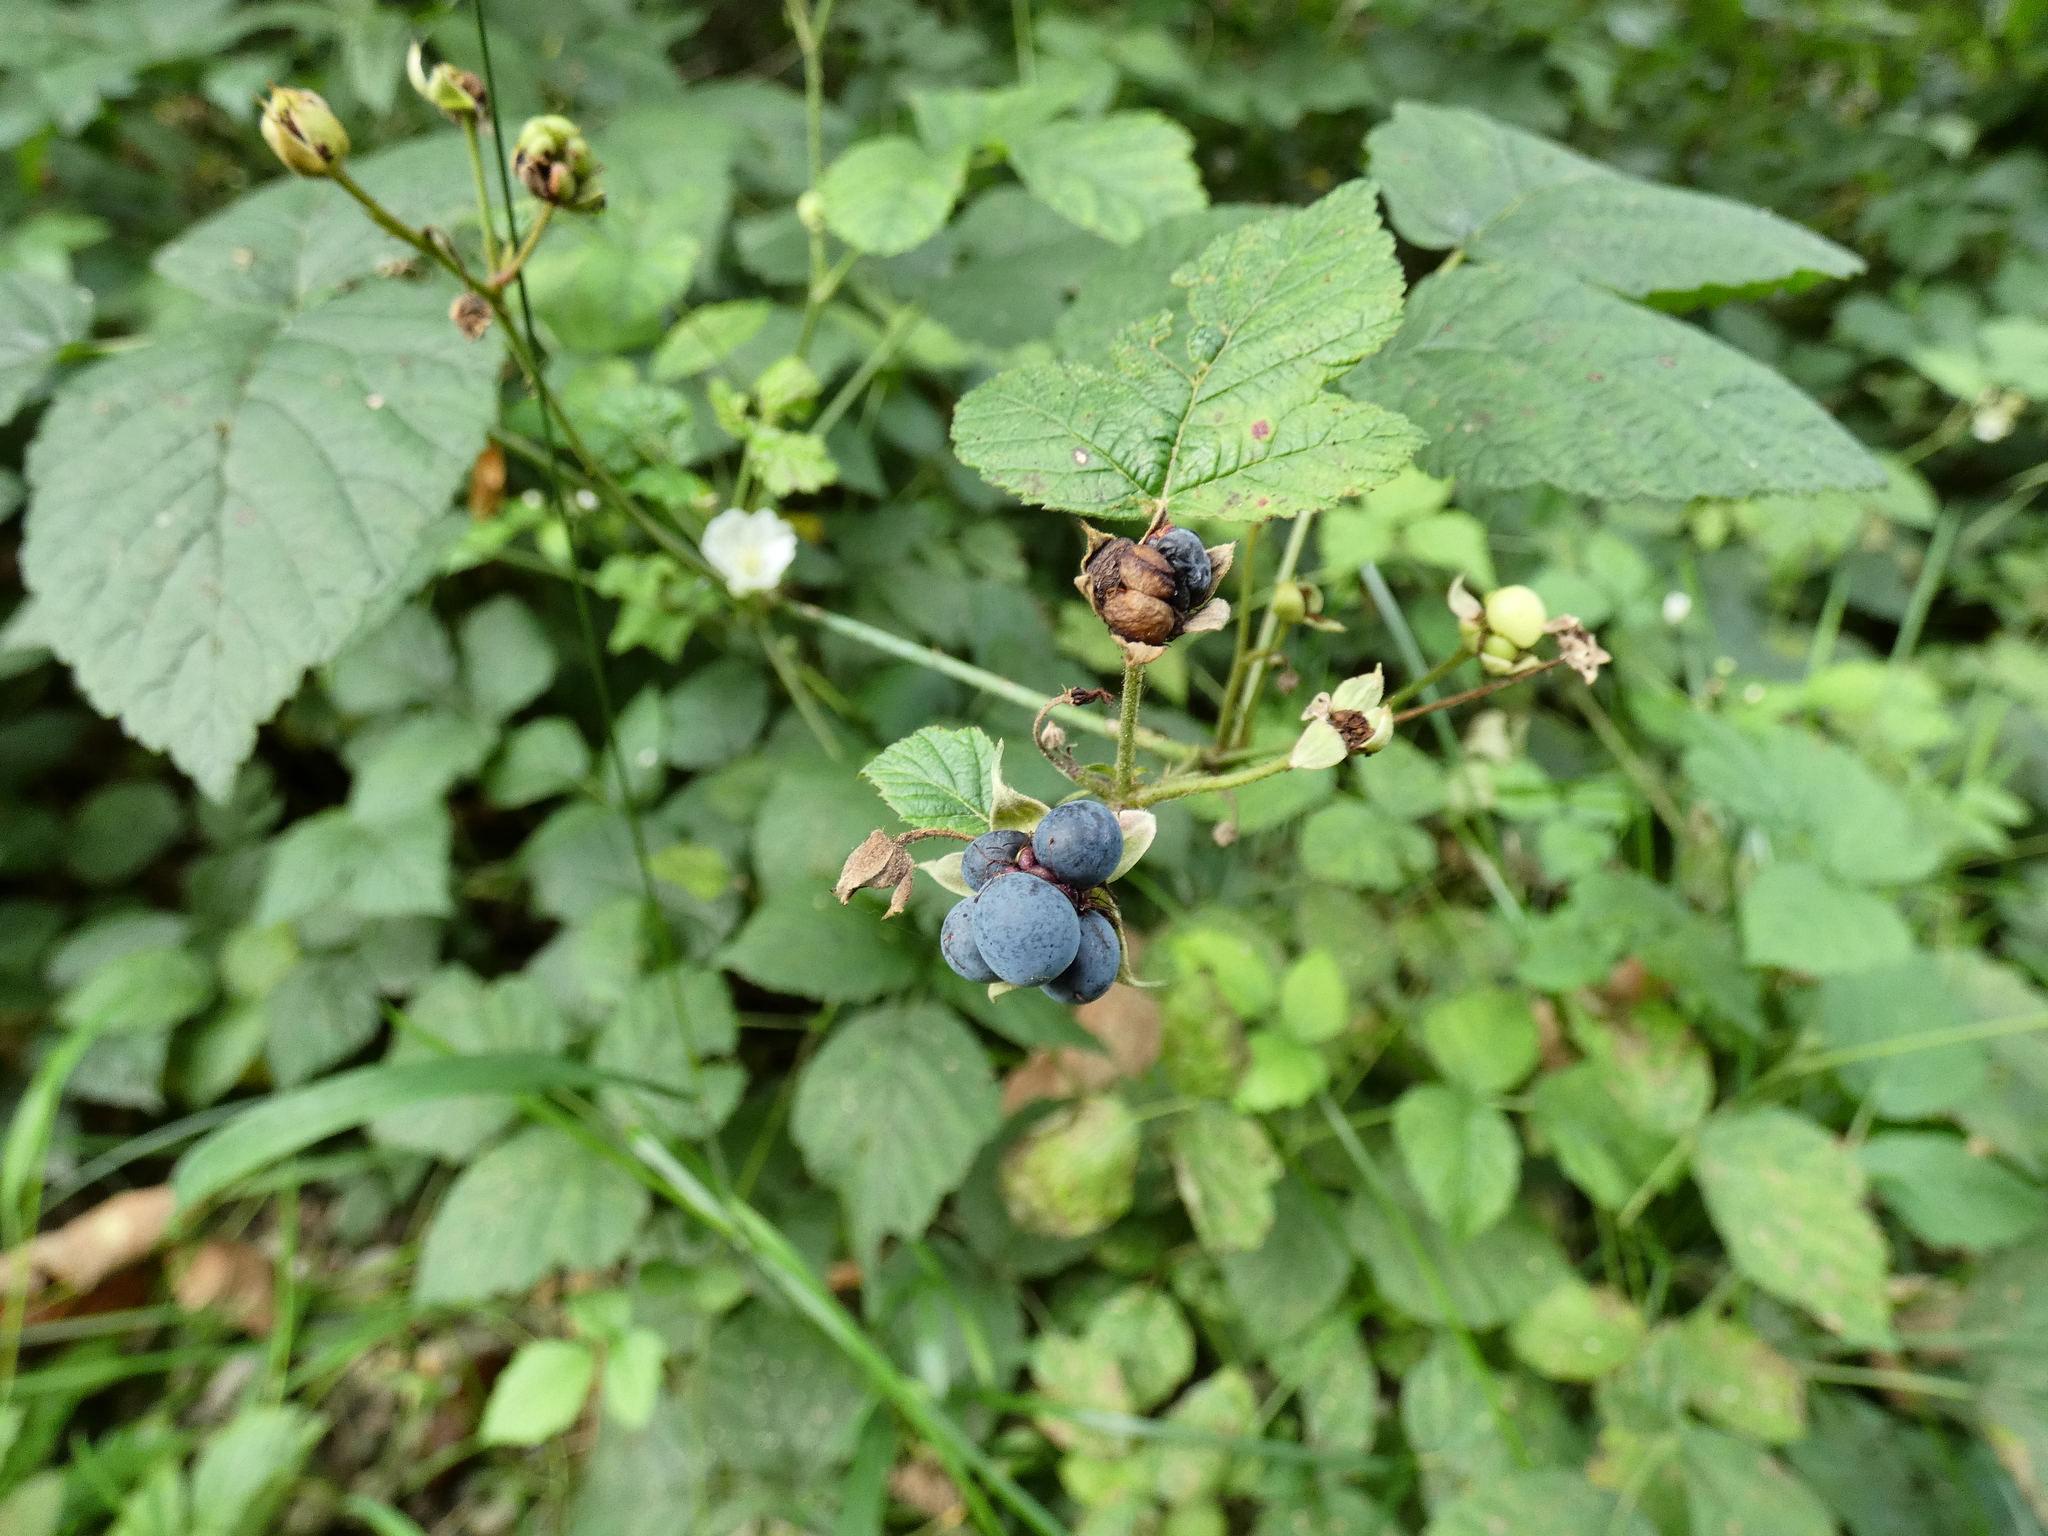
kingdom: Plantae
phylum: Tracheophyta
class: Magnoliopsida
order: Rosales
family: Rosaceae
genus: Rubus
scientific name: Rubus caesius
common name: Dewberry
